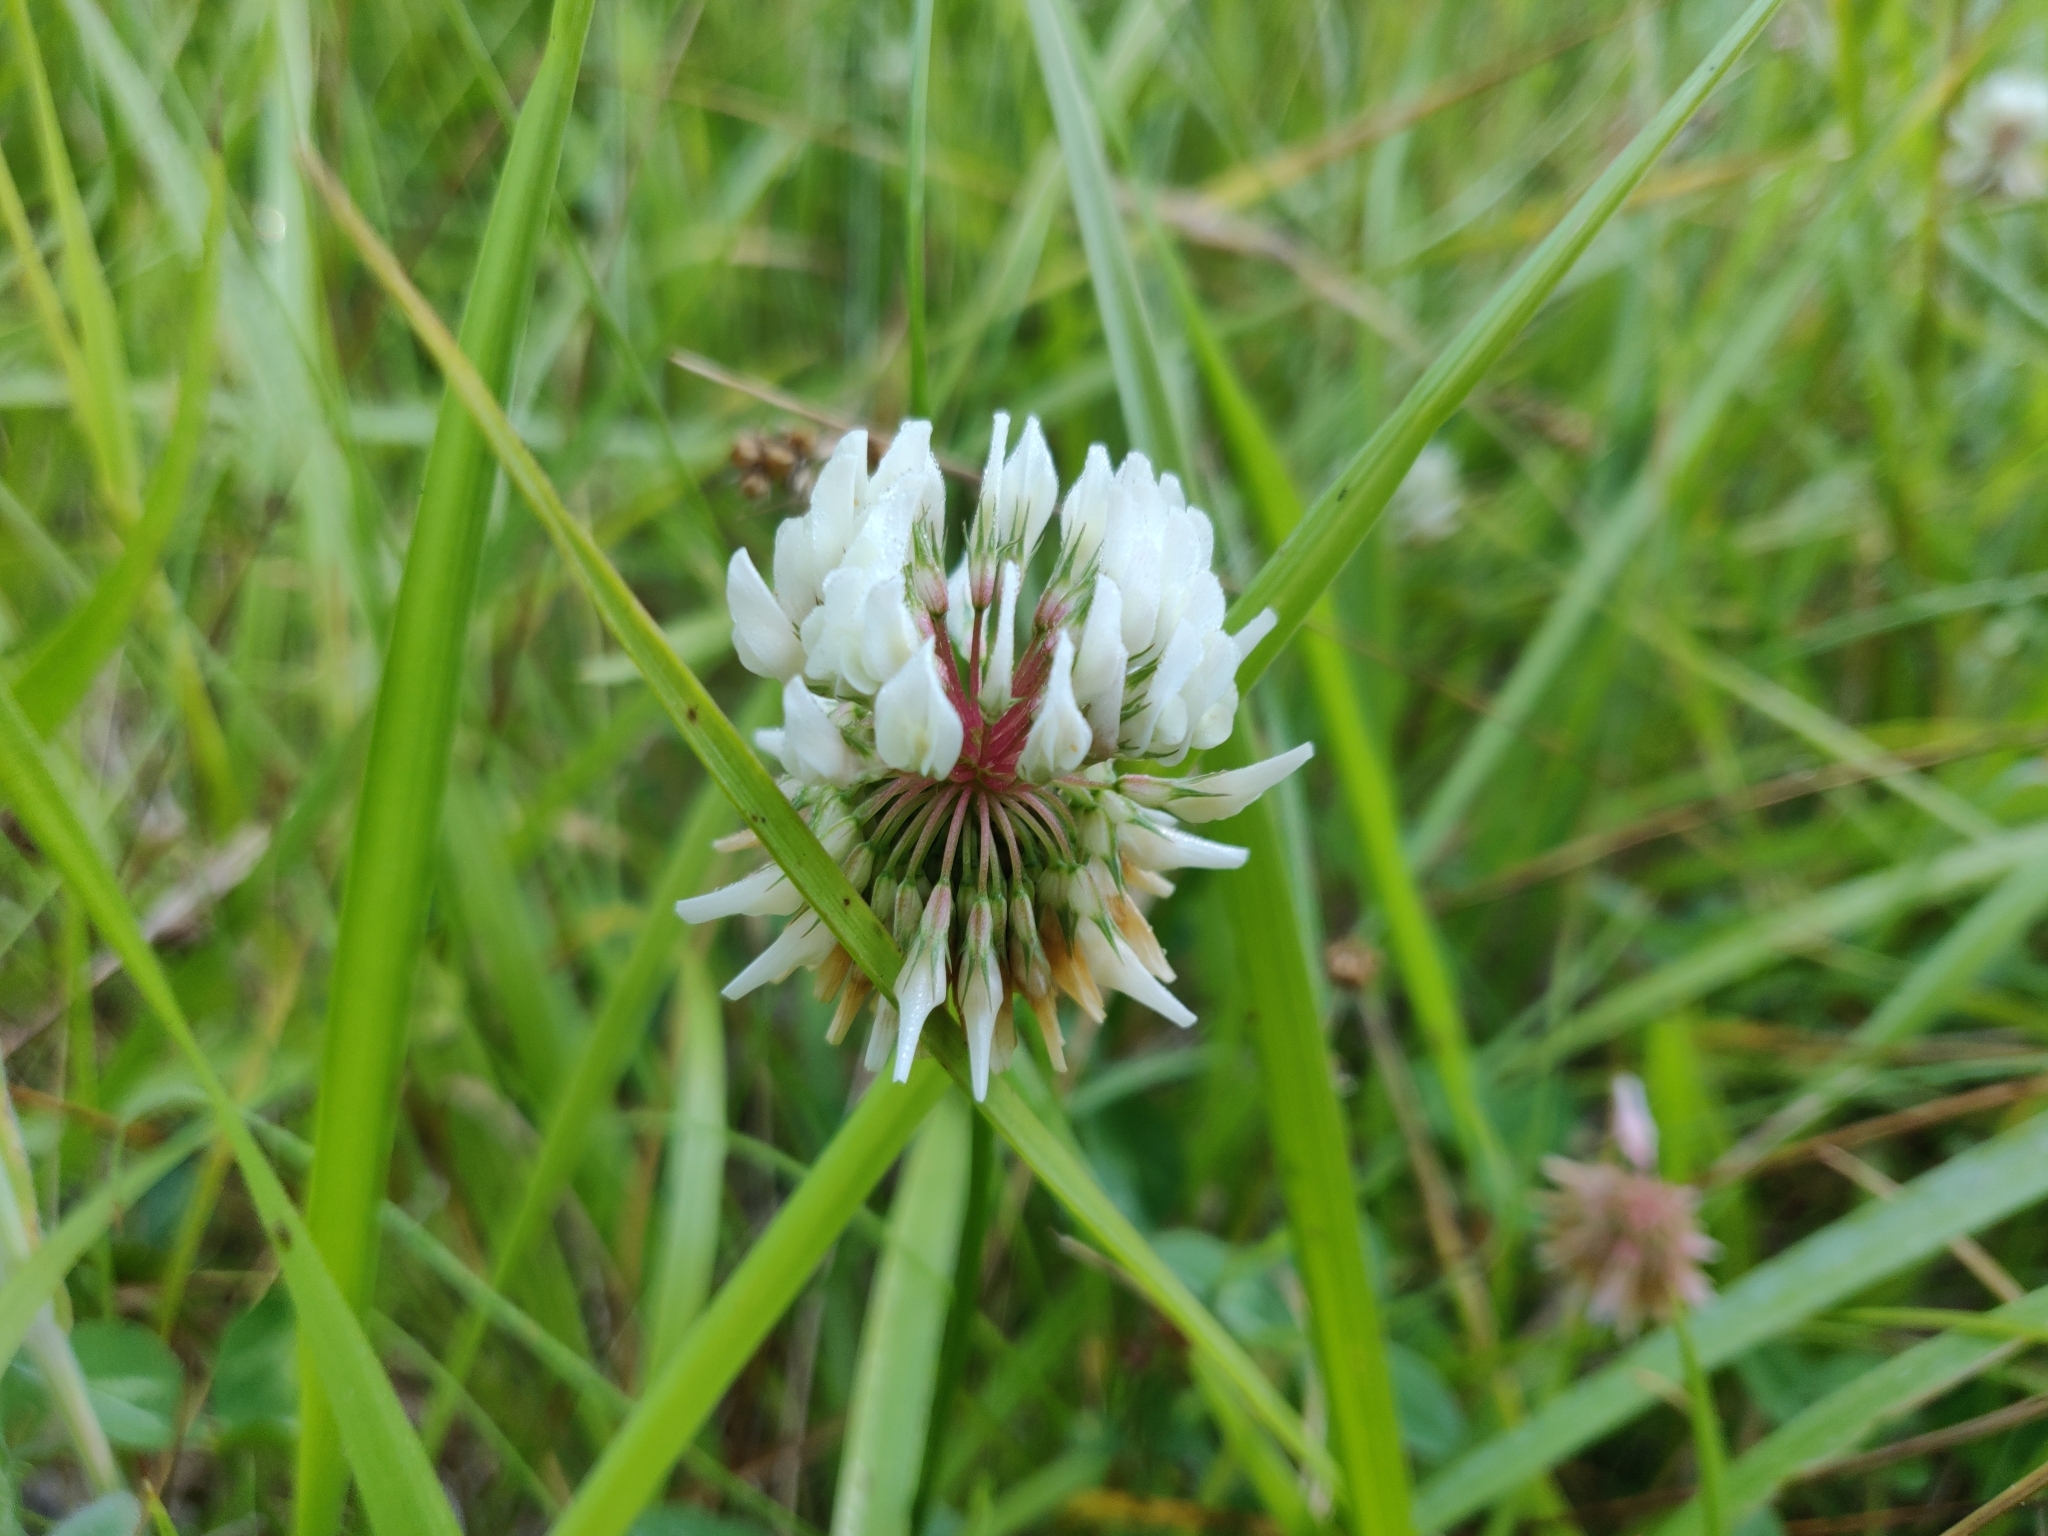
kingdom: Plantae
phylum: Tracheophyta
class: Magnoliopsida
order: Fabales
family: Fabaceae
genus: Trifolium
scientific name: Trifolium repens
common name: White clover
